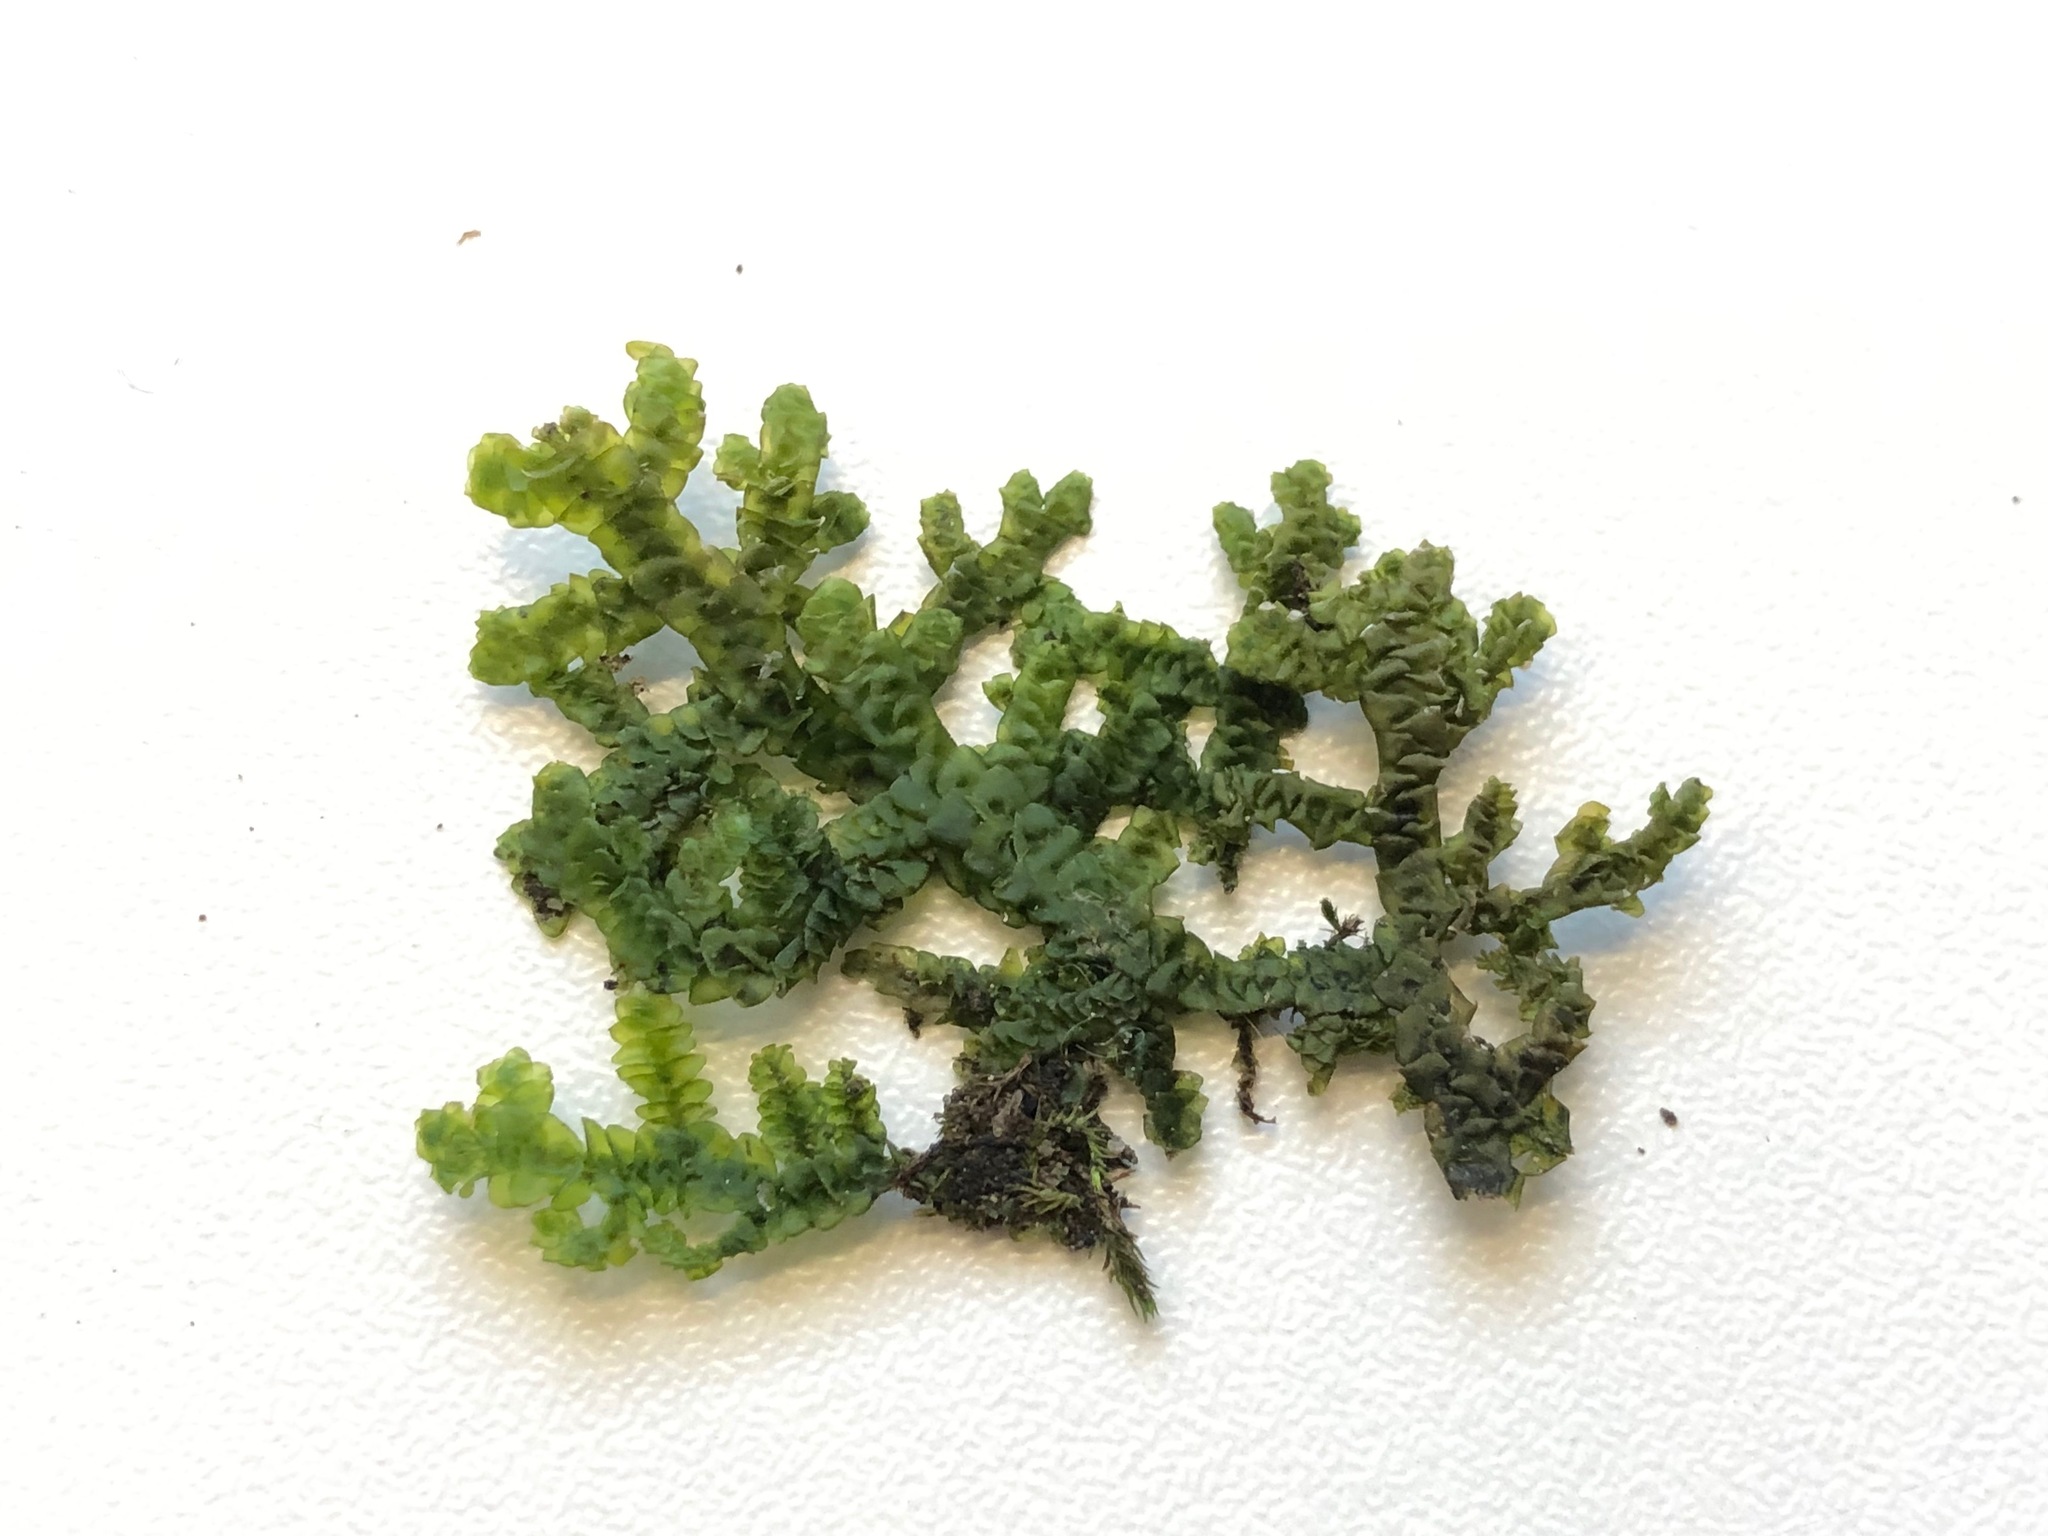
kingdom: Plantae
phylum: Marchantiophyta
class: Jungermanniopsida
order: Porellales
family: Porellaceae
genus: Porella
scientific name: Porella platyphylla
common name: Wall scalewort
